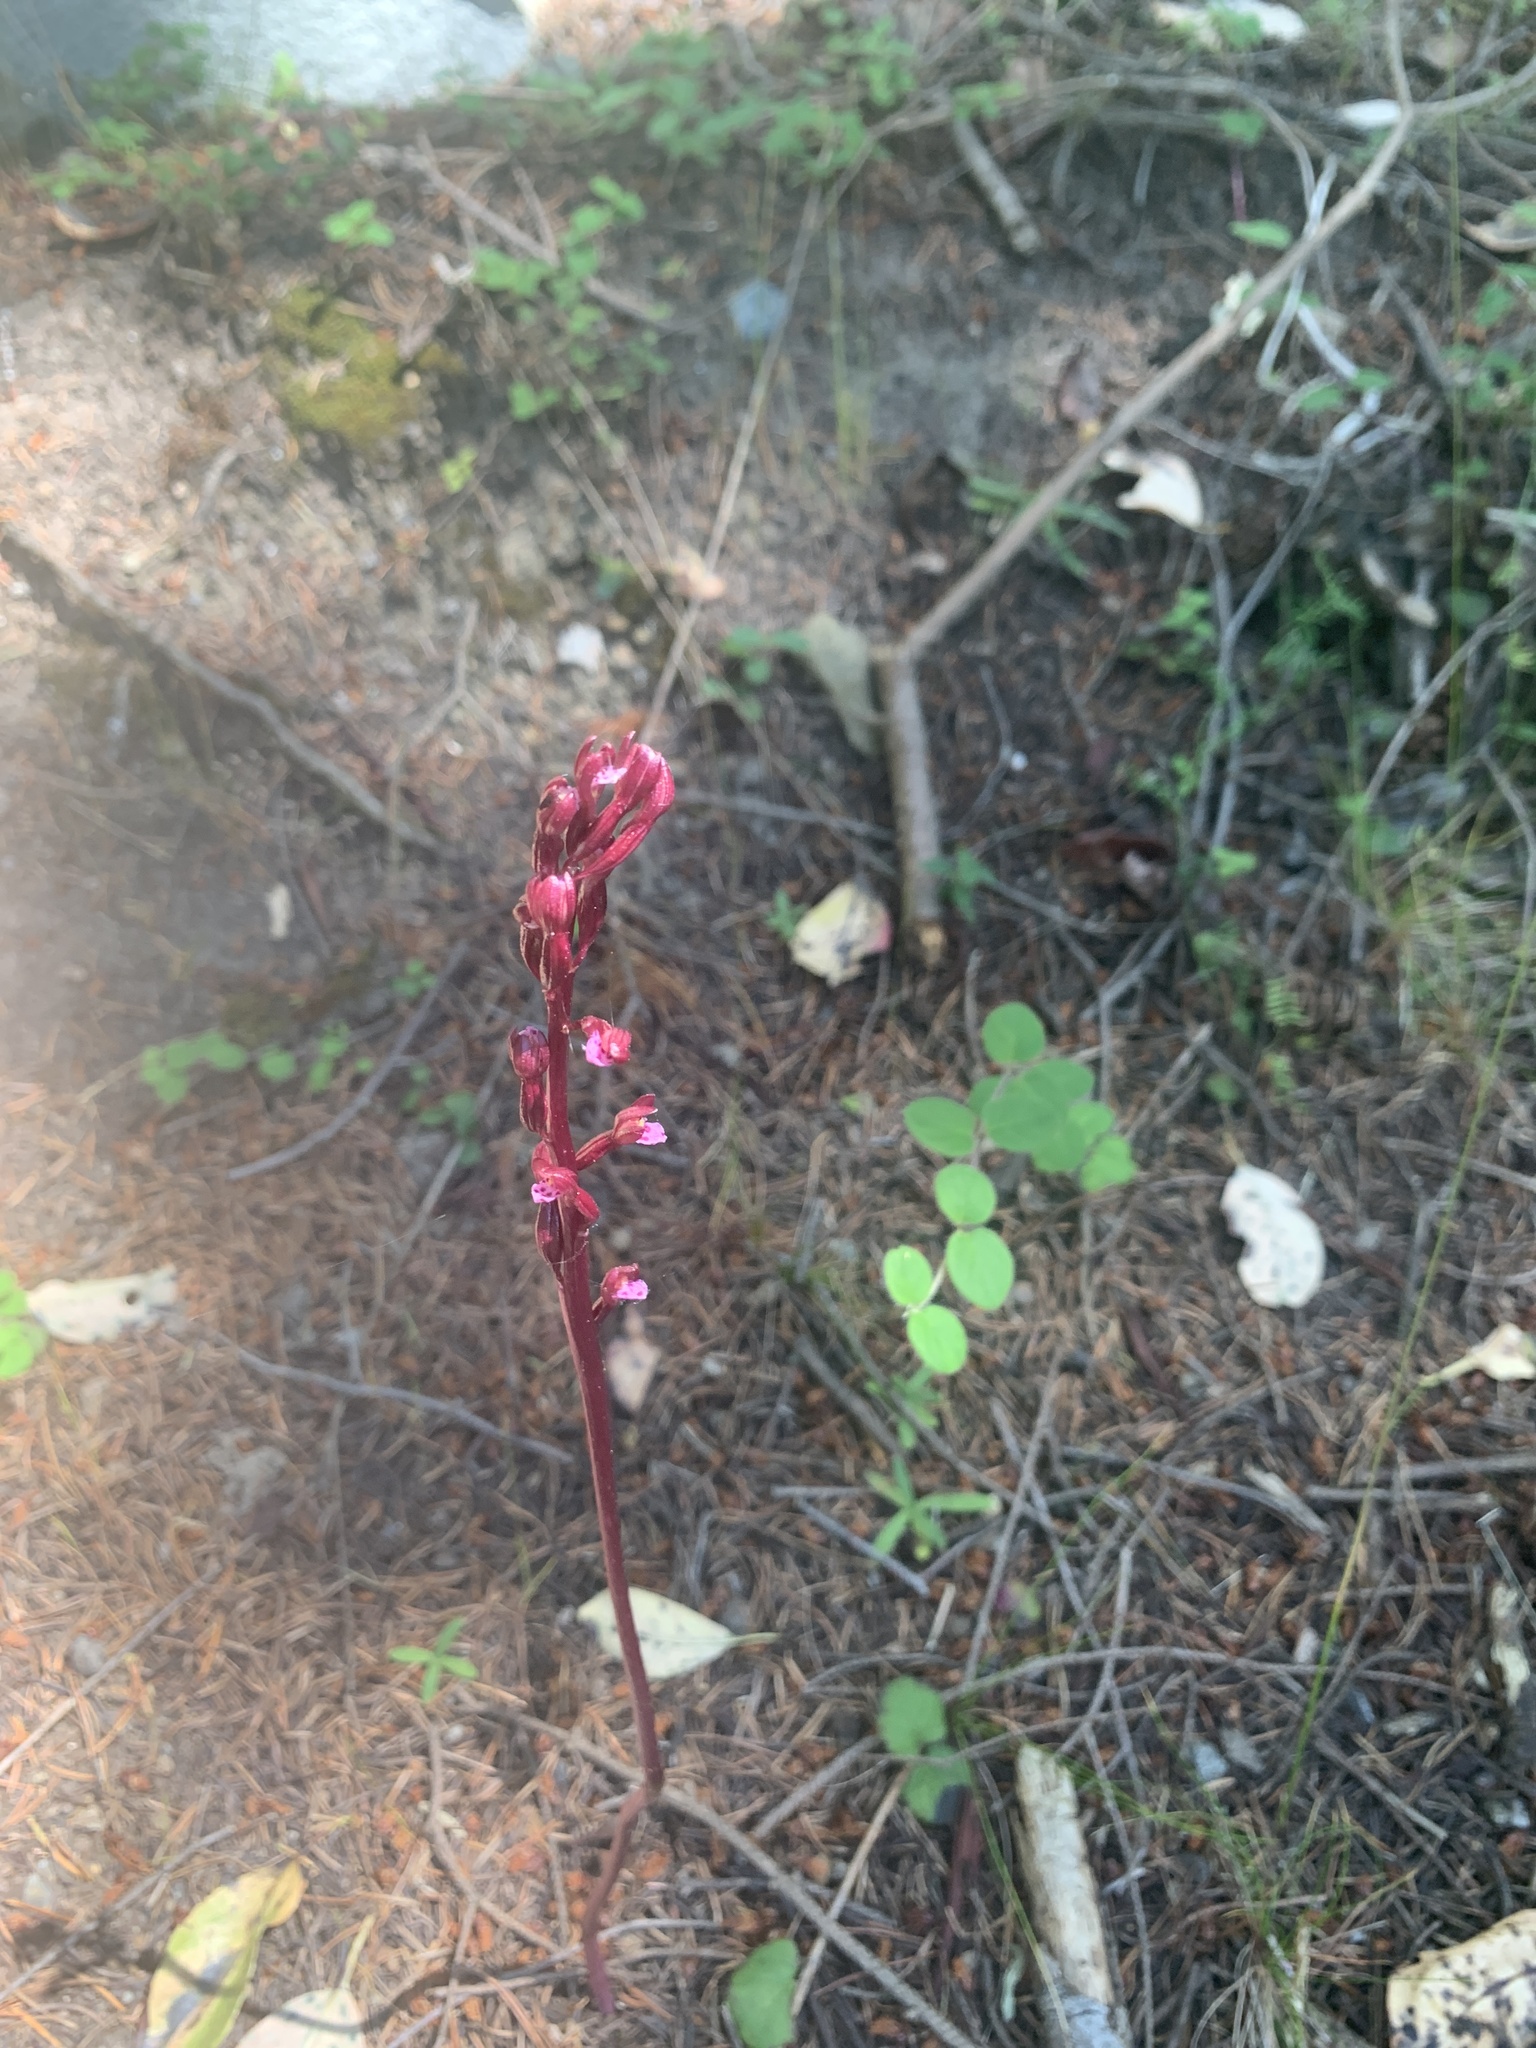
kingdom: Plantae
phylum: Tracheophyta
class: Liliopsida
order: Asparagales
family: Orchidaceae
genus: Corallorhiza
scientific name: Corallorhiza maculata
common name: Spotted coralroot
